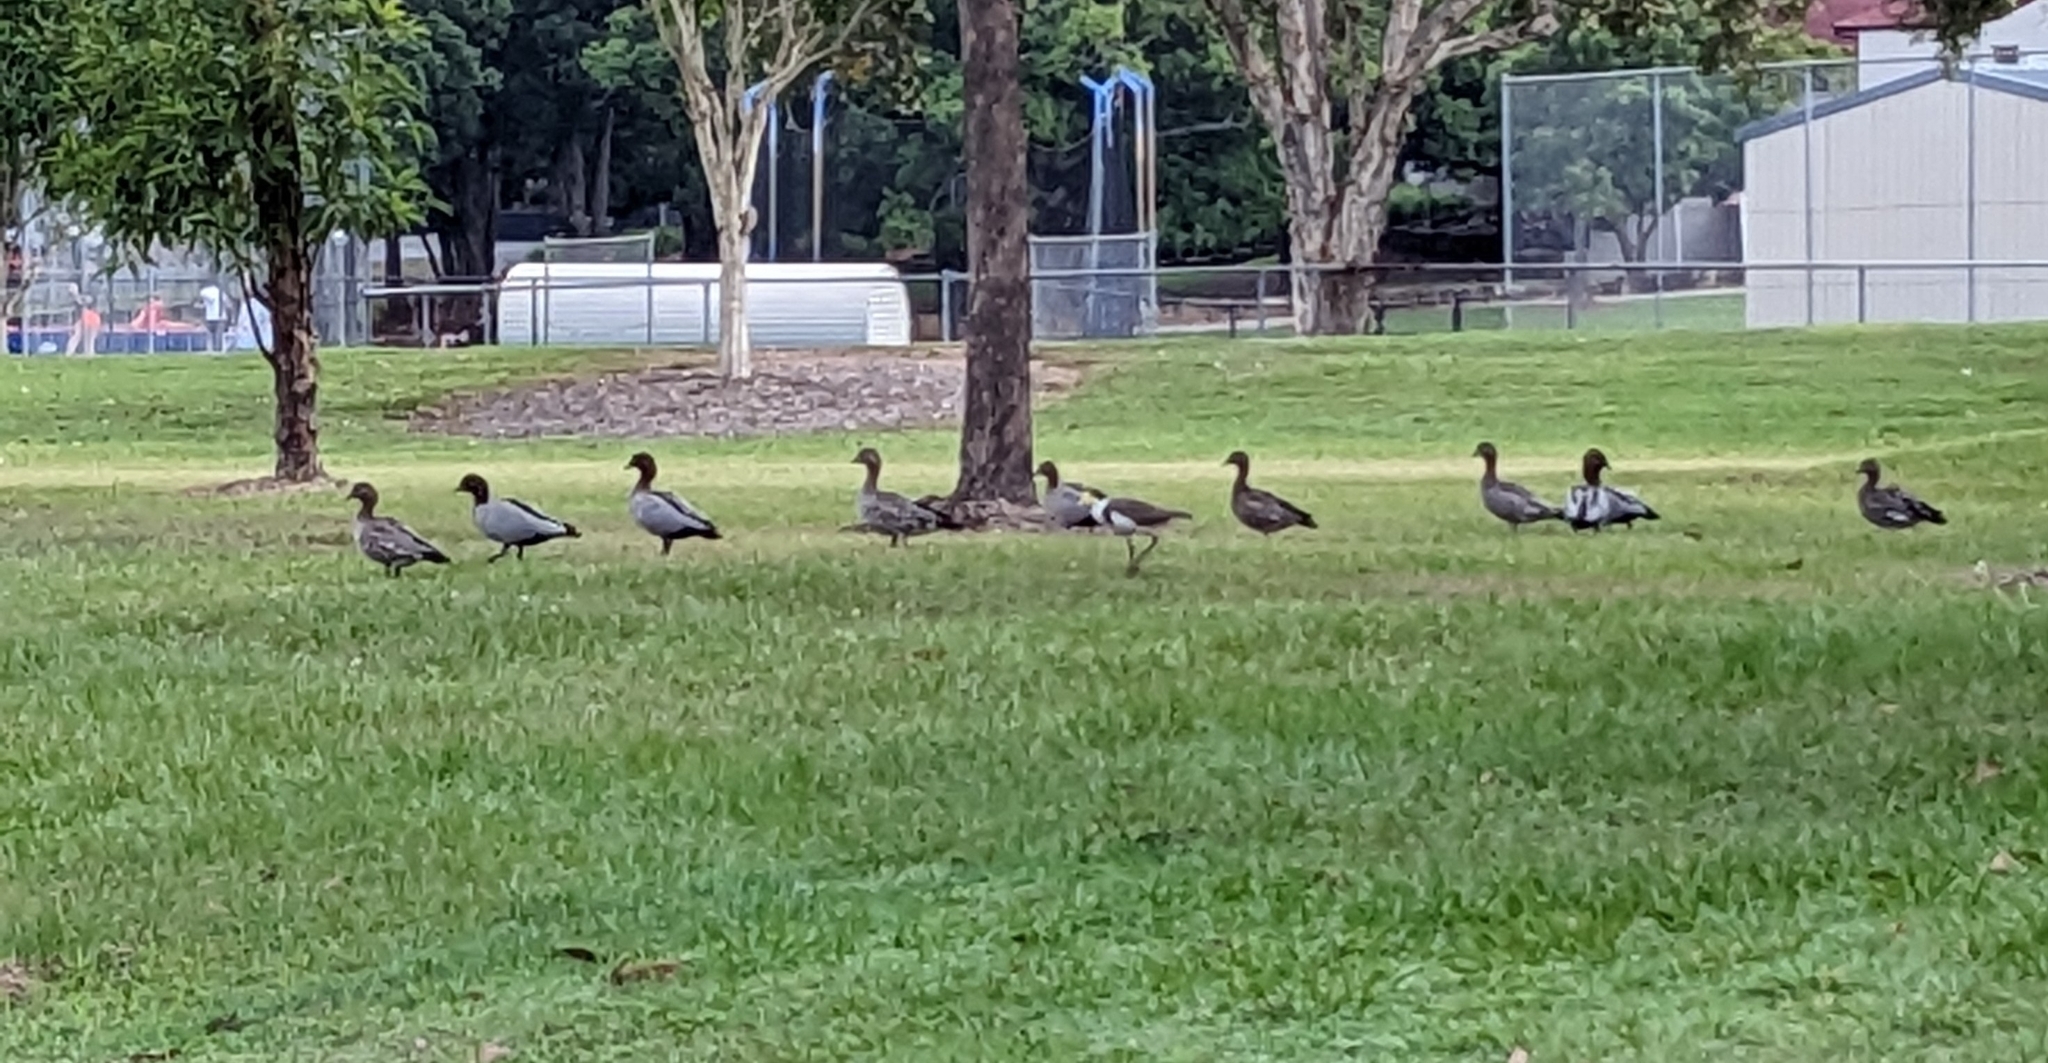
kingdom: Animalia
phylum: Chordata
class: Aves
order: Anseriformes
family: Anatidae
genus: Chenonetta
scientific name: Chenonetta jubata
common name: Maned duck
